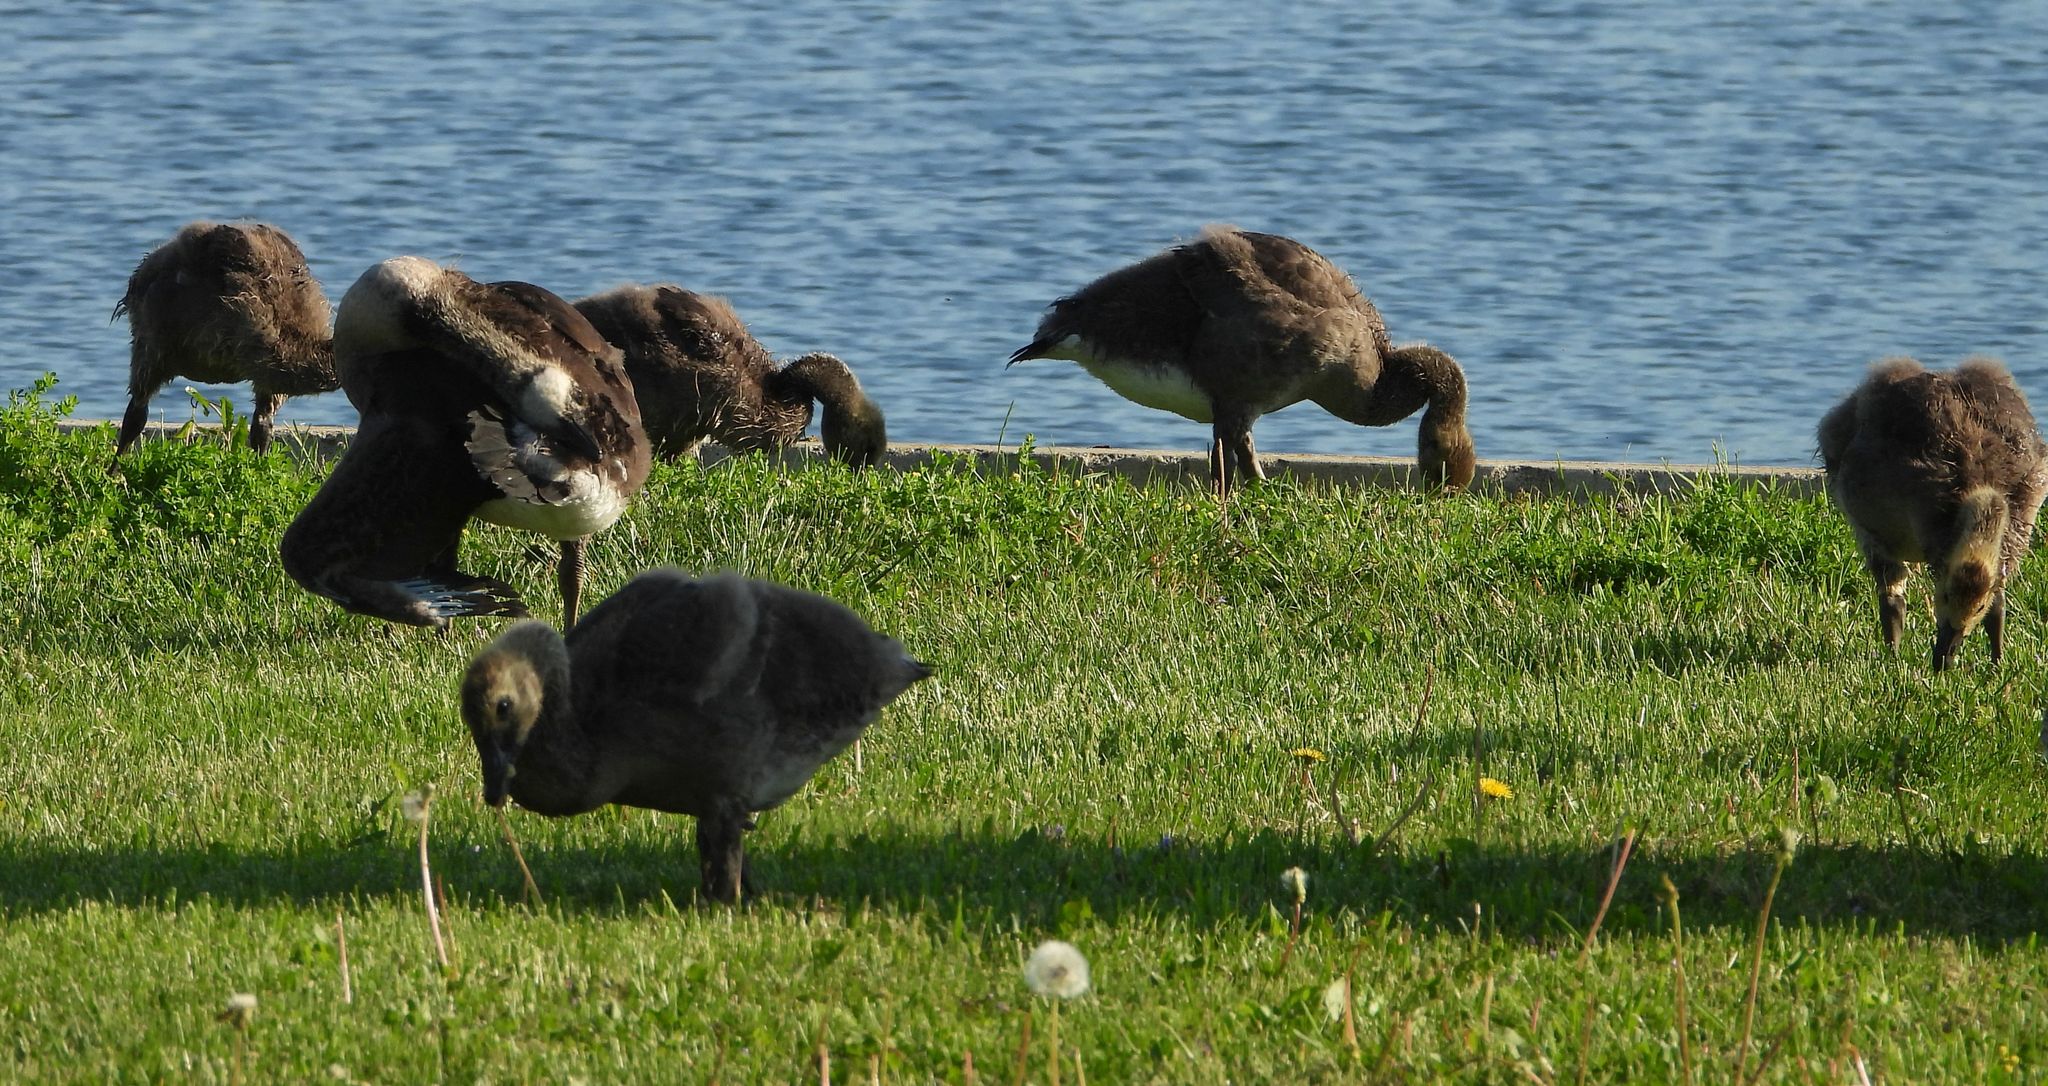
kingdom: Animalia
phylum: Chordata
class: Aves
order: Anseriformes
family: Anatidae
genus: Branta
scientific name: Branta canadensis
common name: Canada goose
